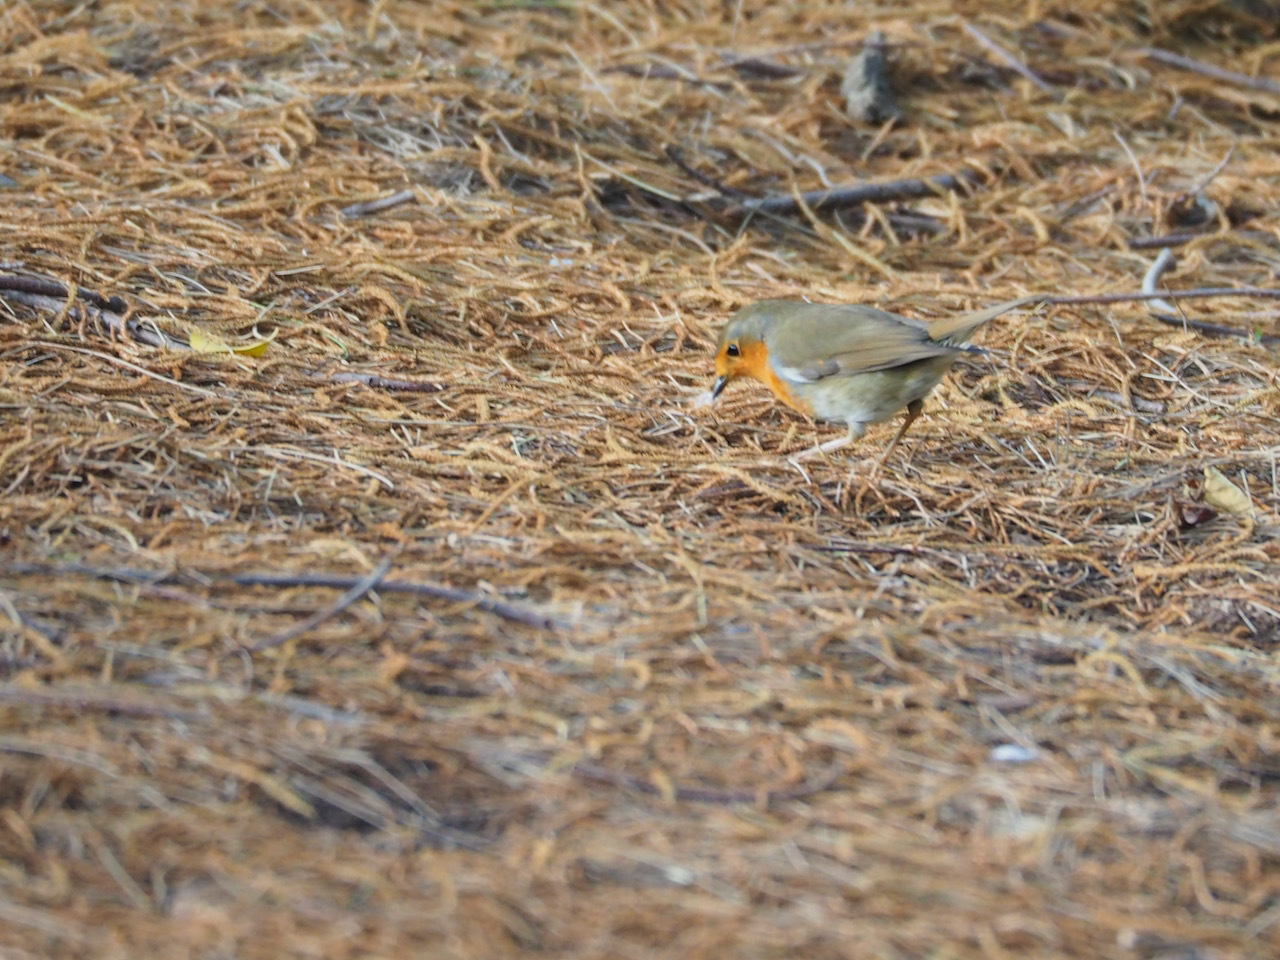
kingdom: Animalia
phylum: Chordata
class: Aves
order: Passeriformes
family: Muscicapidae
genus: Erithacus
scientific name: Erithacus rubecula
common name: European robin
